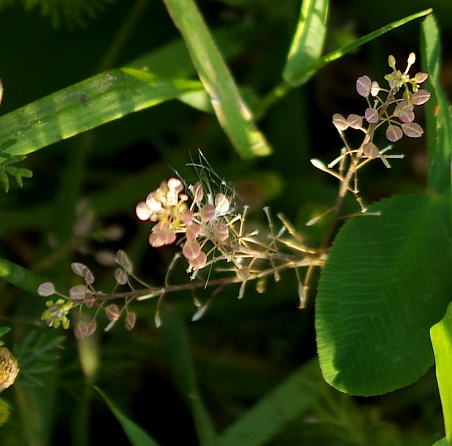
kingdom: Plantae
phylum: Tracheophyta
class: Magnoliopsida
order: Brassicales
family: Brassicaceae
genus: Lepidium
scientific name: Lepidium ruderale
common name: Narrow-leaved pepperwort
